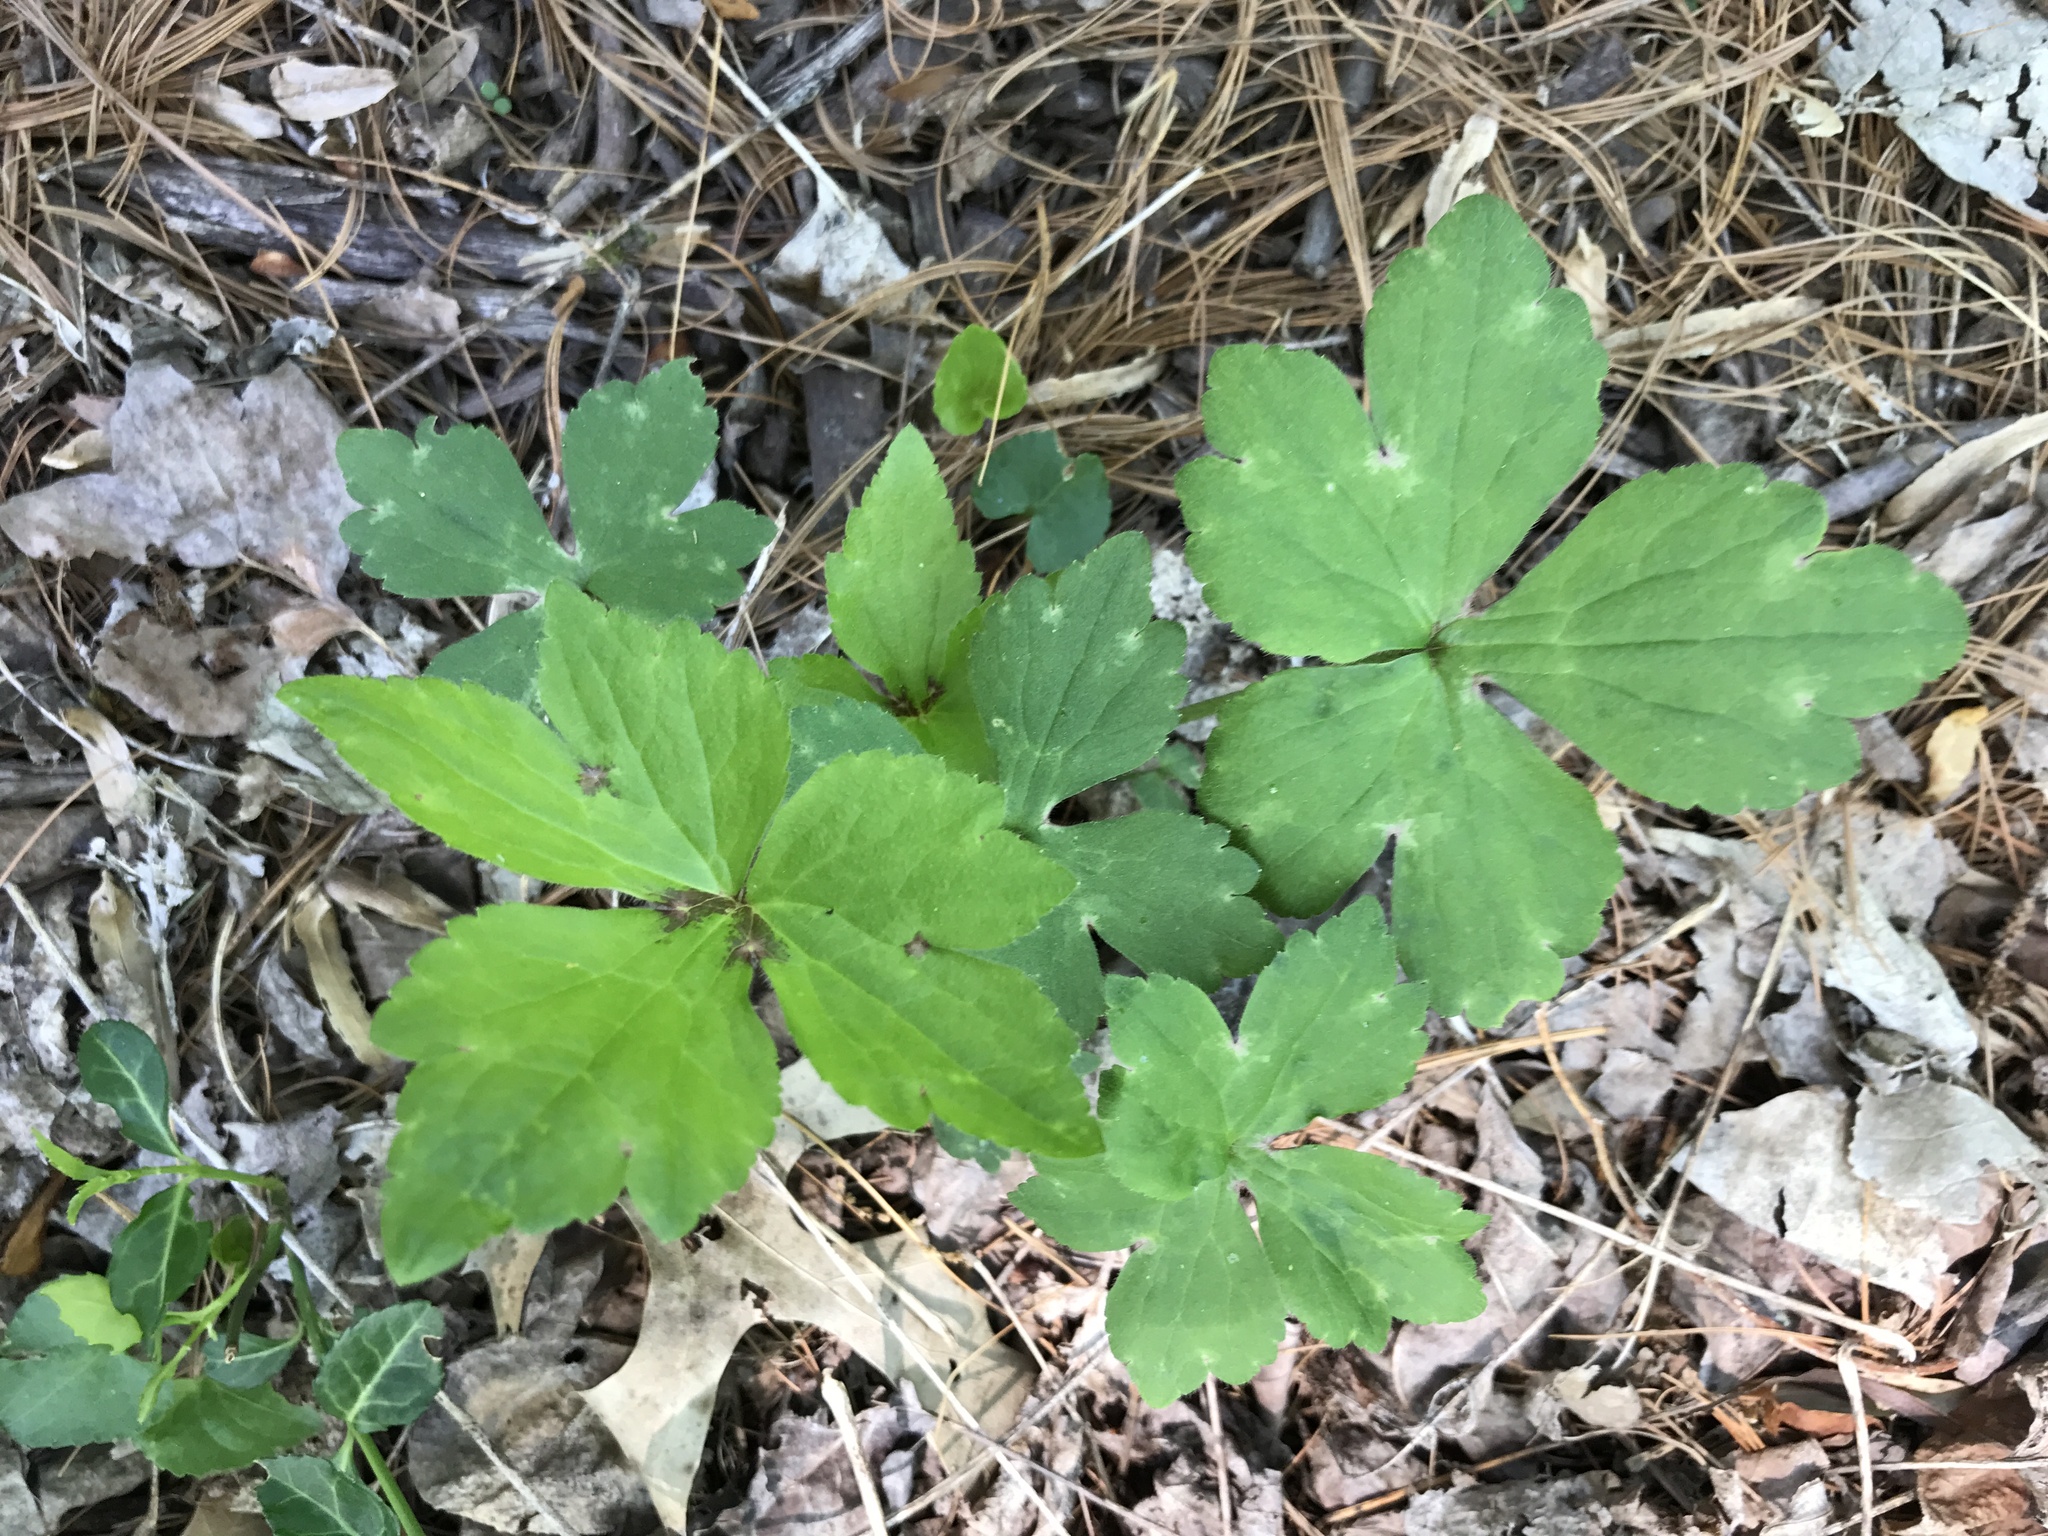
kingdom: Plantae
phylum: Tracheophyta
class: Magnoliopsida
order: Ranunculales
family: Ranunculaceae
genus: Ranunculus
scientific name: Ranunculus recurvatus
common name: Blisterwort
